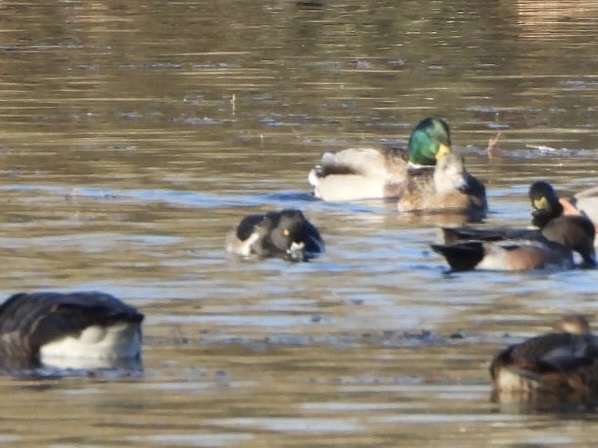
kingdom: Animalia
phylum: Chordata
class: Aves
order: Anseriformes
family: Anatidae
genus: Aythya
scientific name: Aythya collaris
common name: Ring-necked duck
